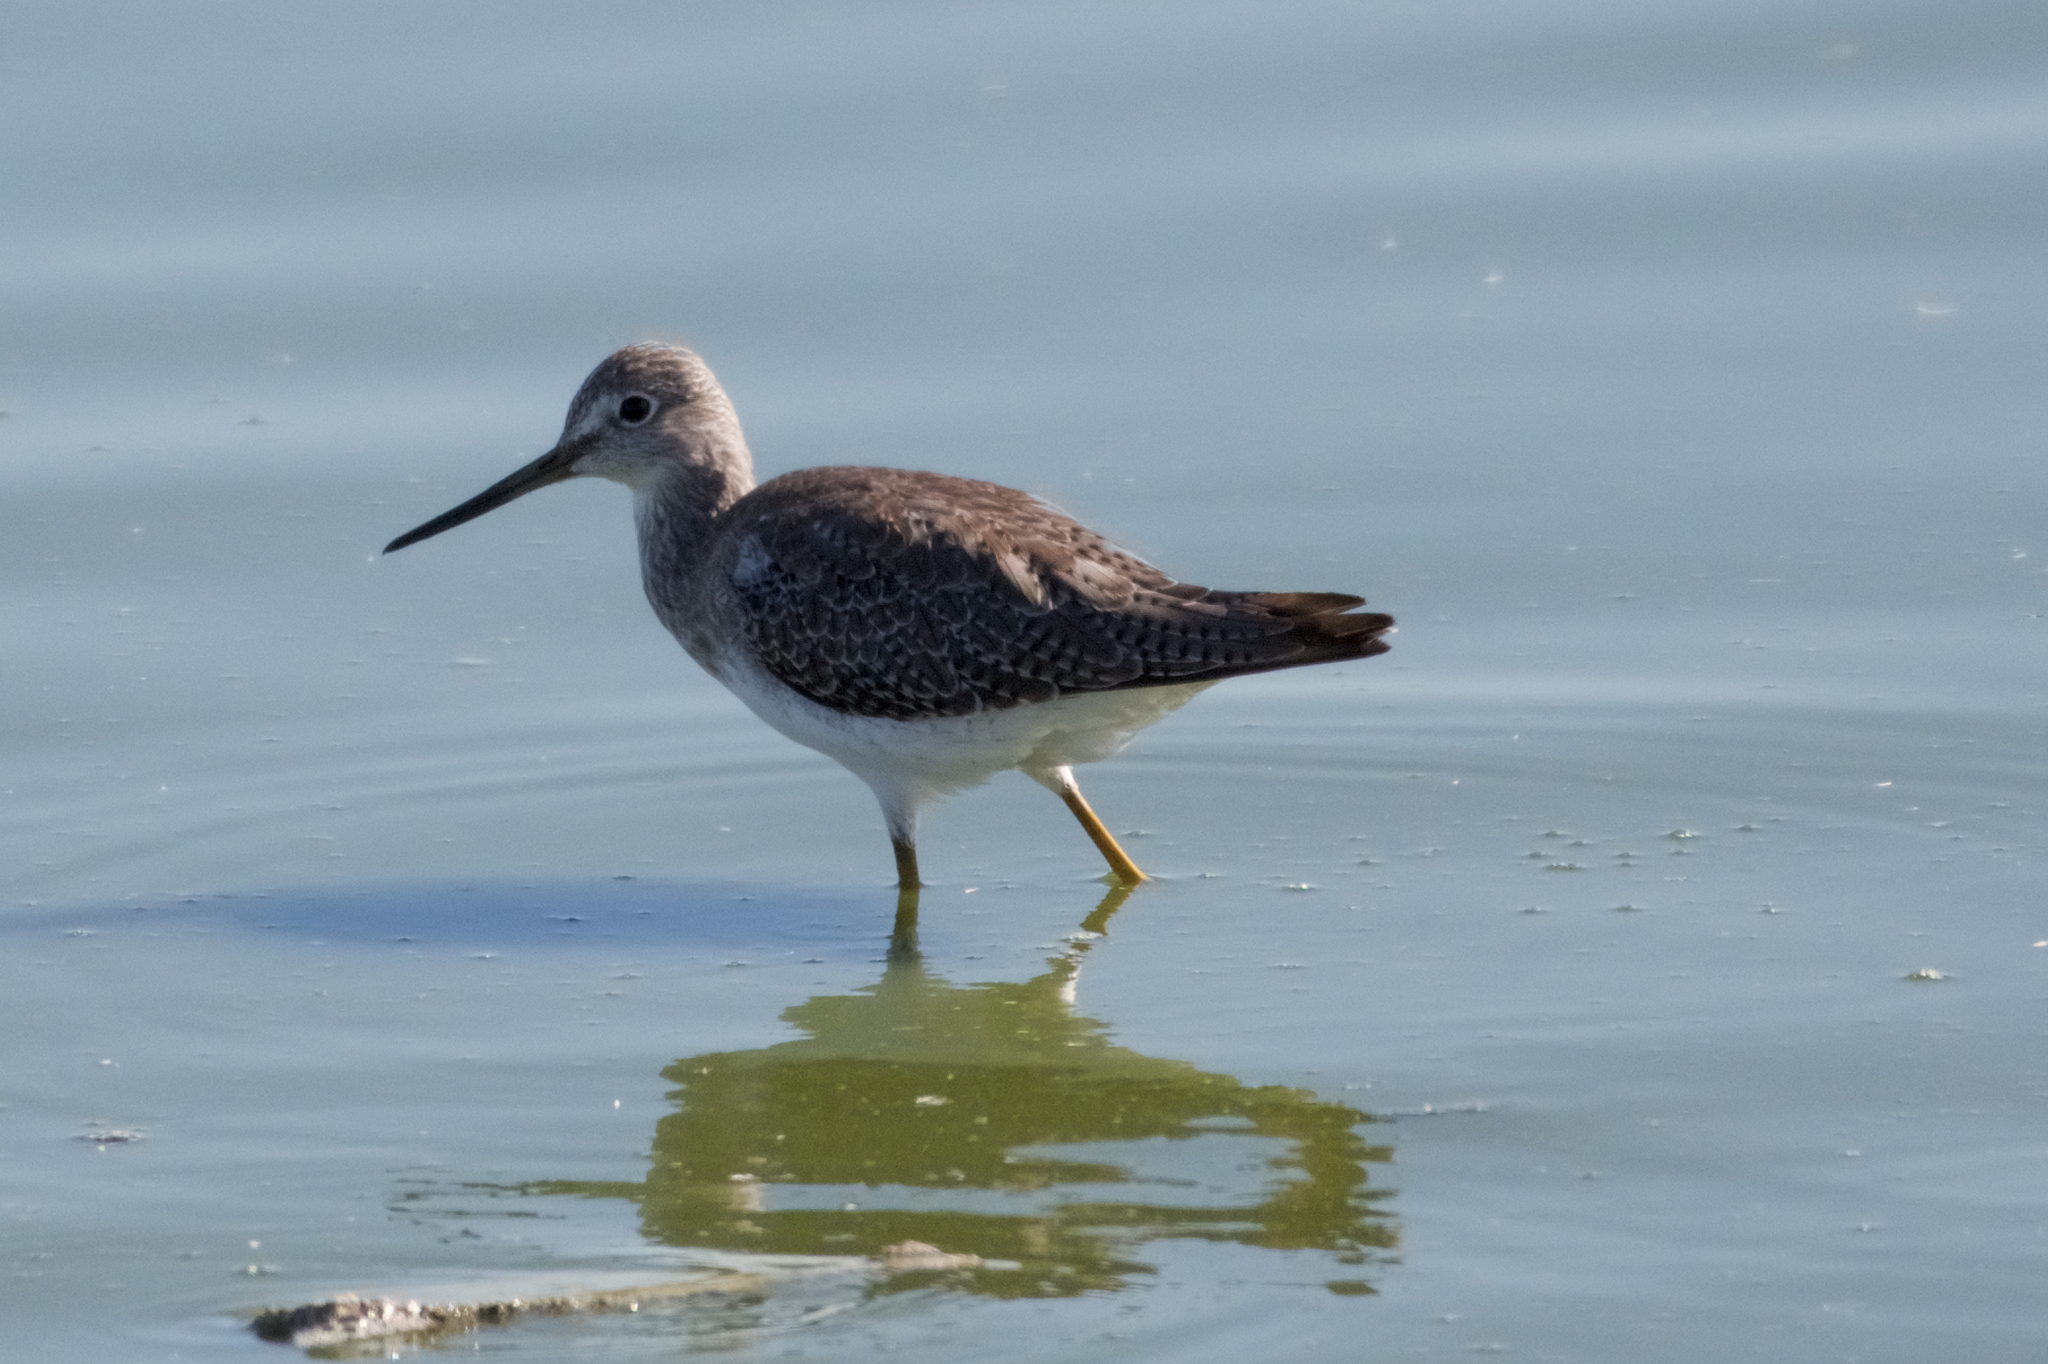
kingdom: Animalia
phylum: Chordata
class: Aves
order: Charadriiformes
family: Scolopacidae
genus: Tringa
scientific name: Tringa melanoleuca
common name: Greater yellowlegs
